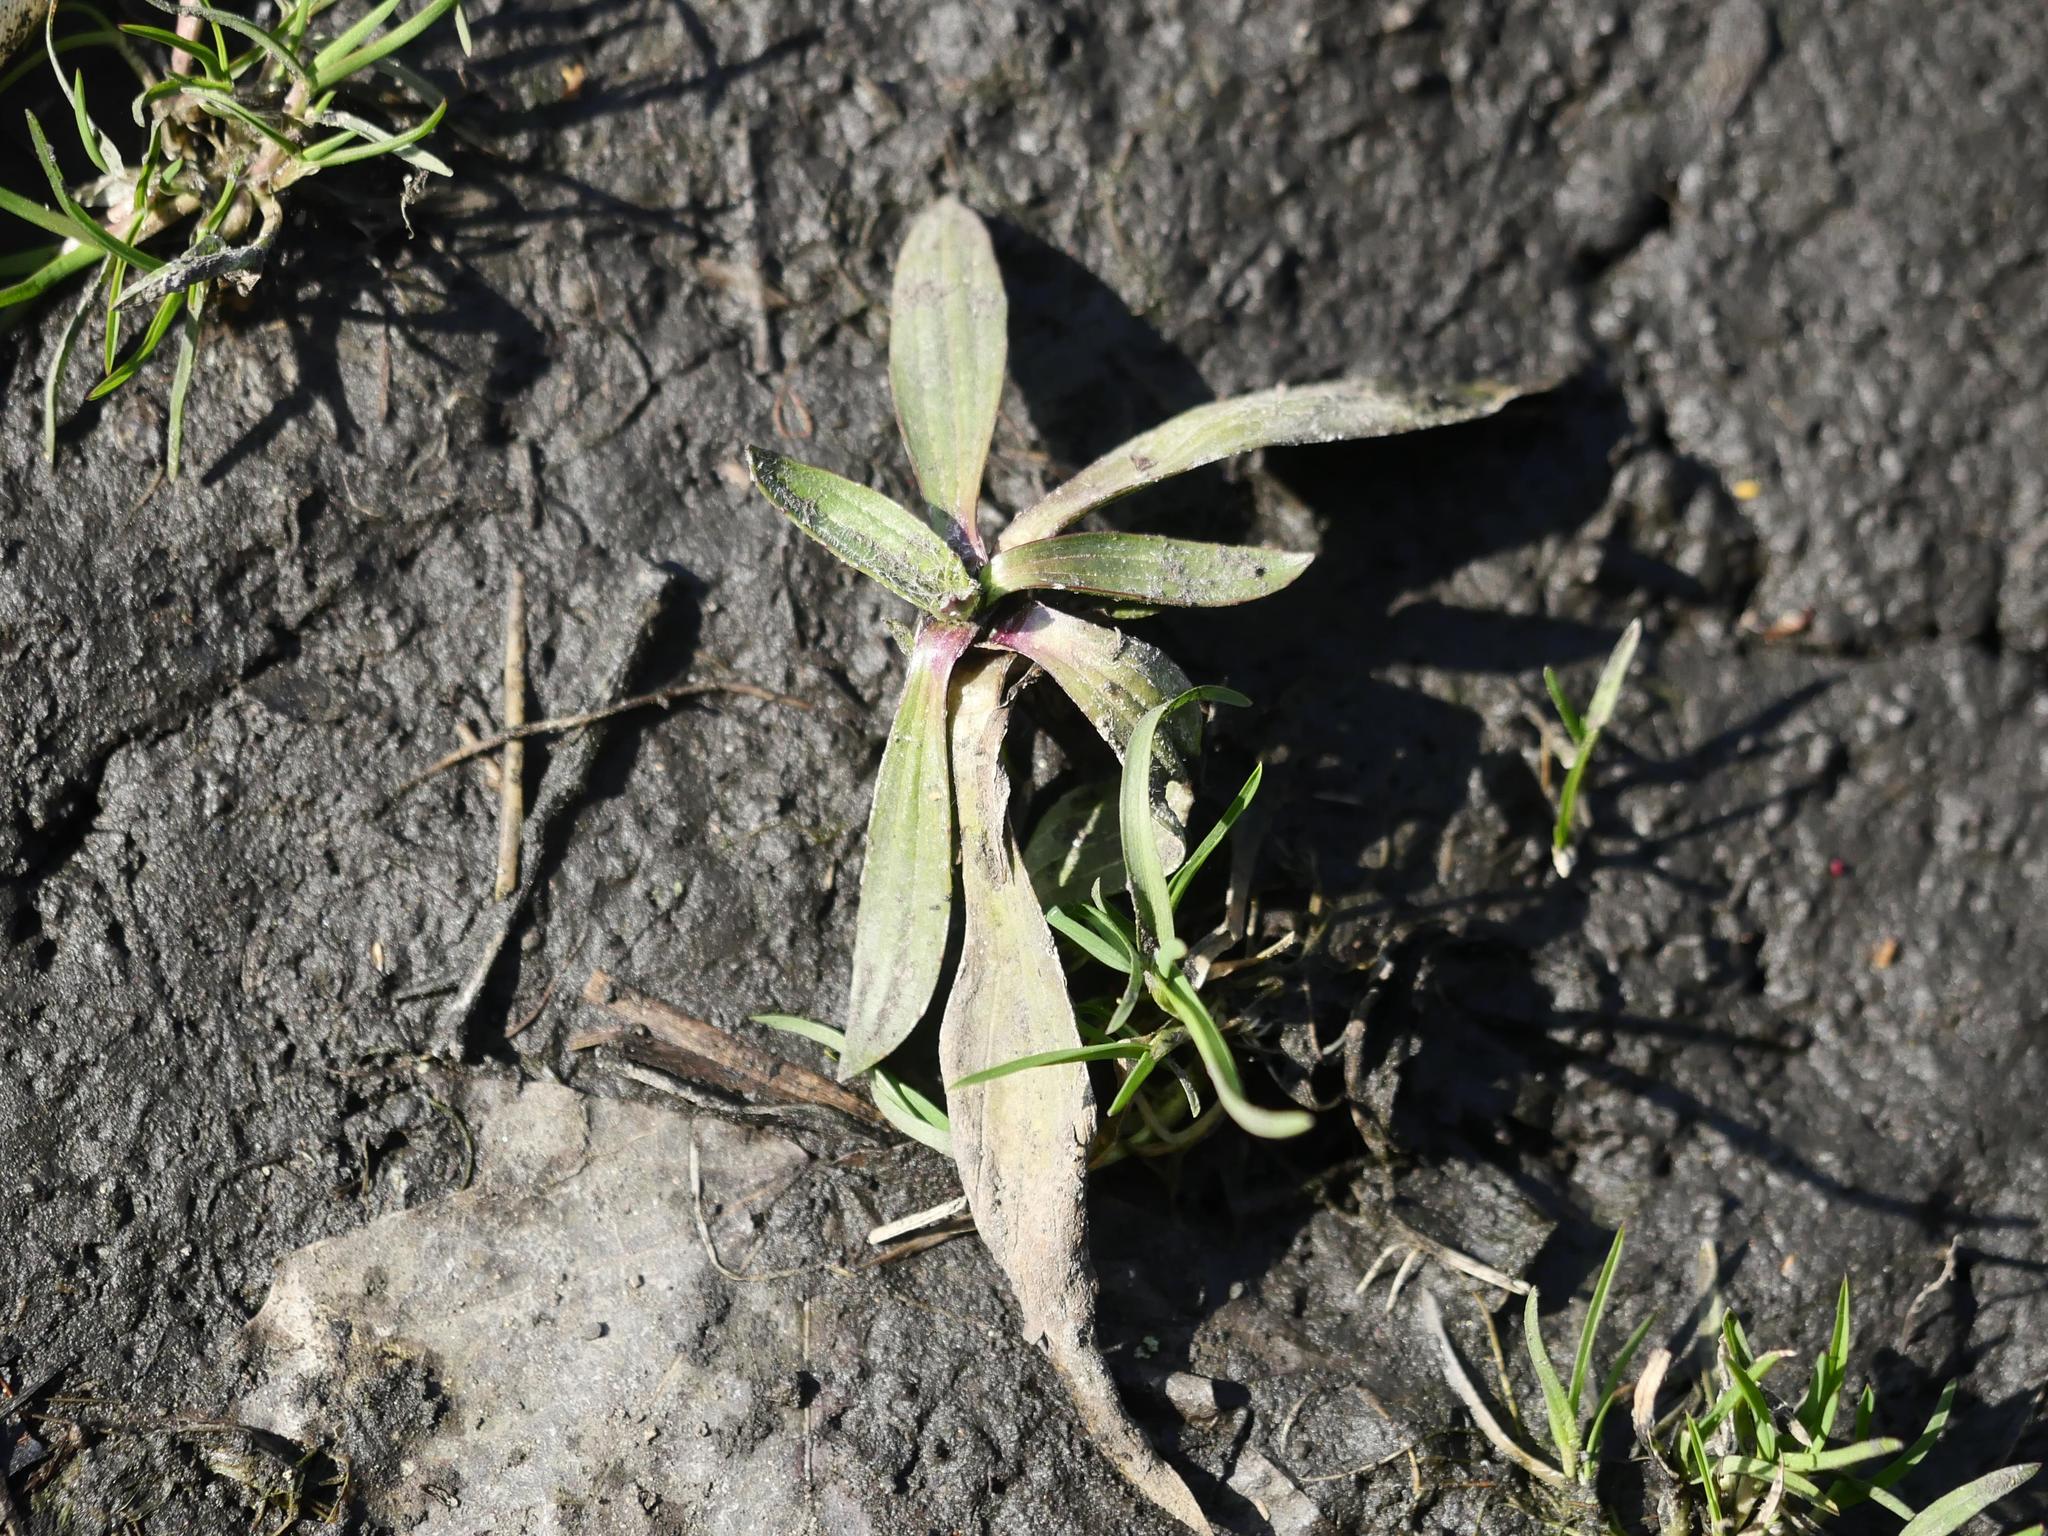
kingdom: Plantae
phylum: Tracheophyta
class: Magnoliopsida
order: Lamiales
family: Plantaginaceae
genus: Plantago
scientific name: Plantago lanceolata
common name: Ribwort plantain
